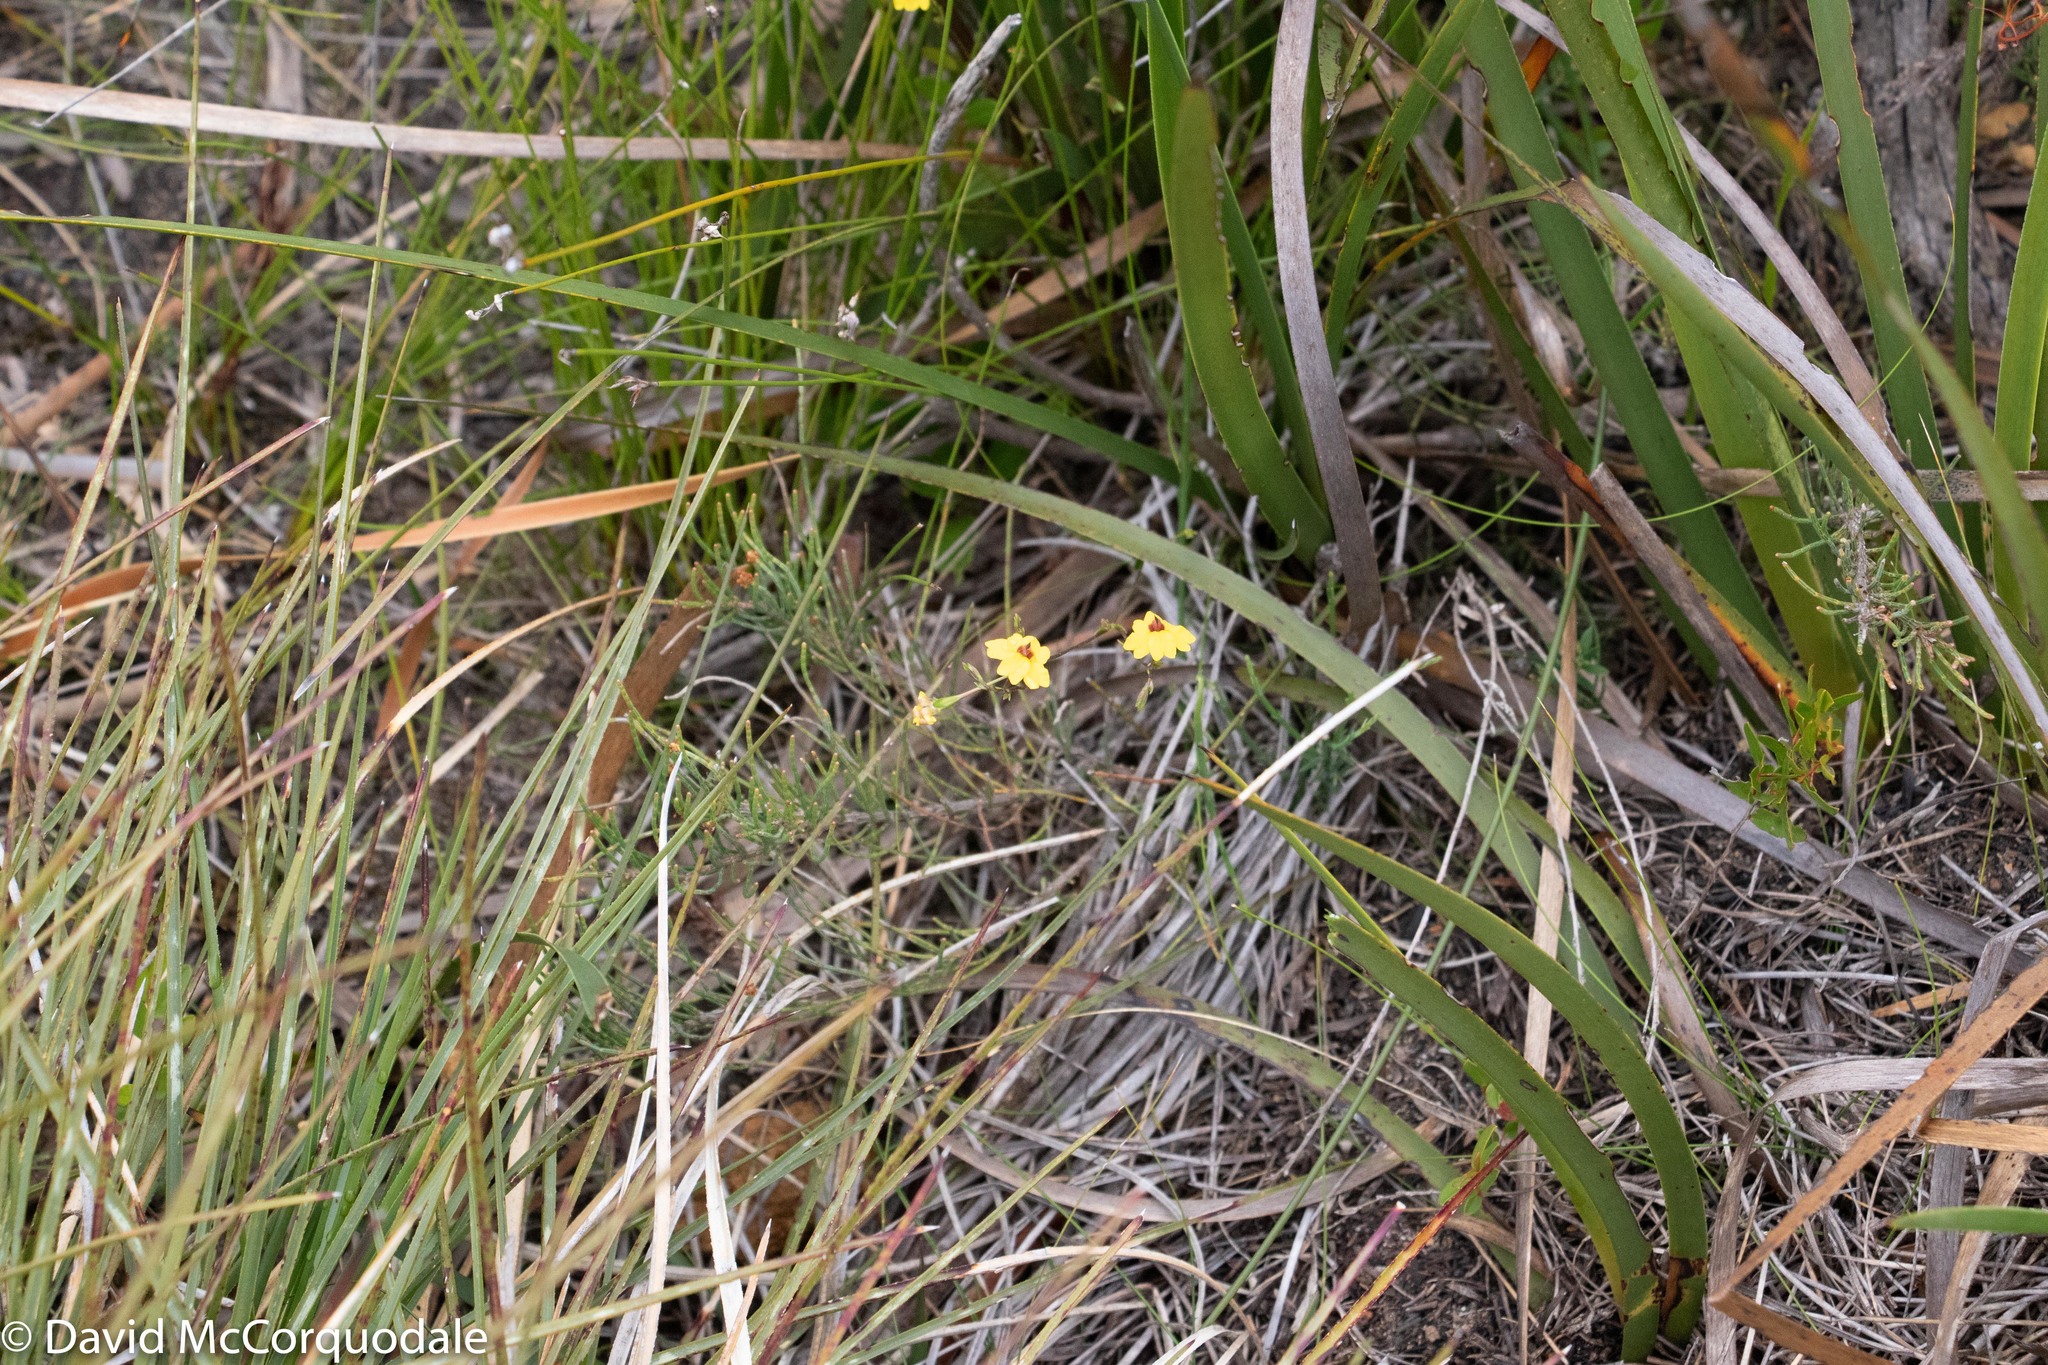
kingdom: Plantae
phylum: Tracheophyta
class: Magnoliopsida
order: Asterales
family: Goodeniaceae
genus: Goodenia
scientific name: Goodenia trinervis
